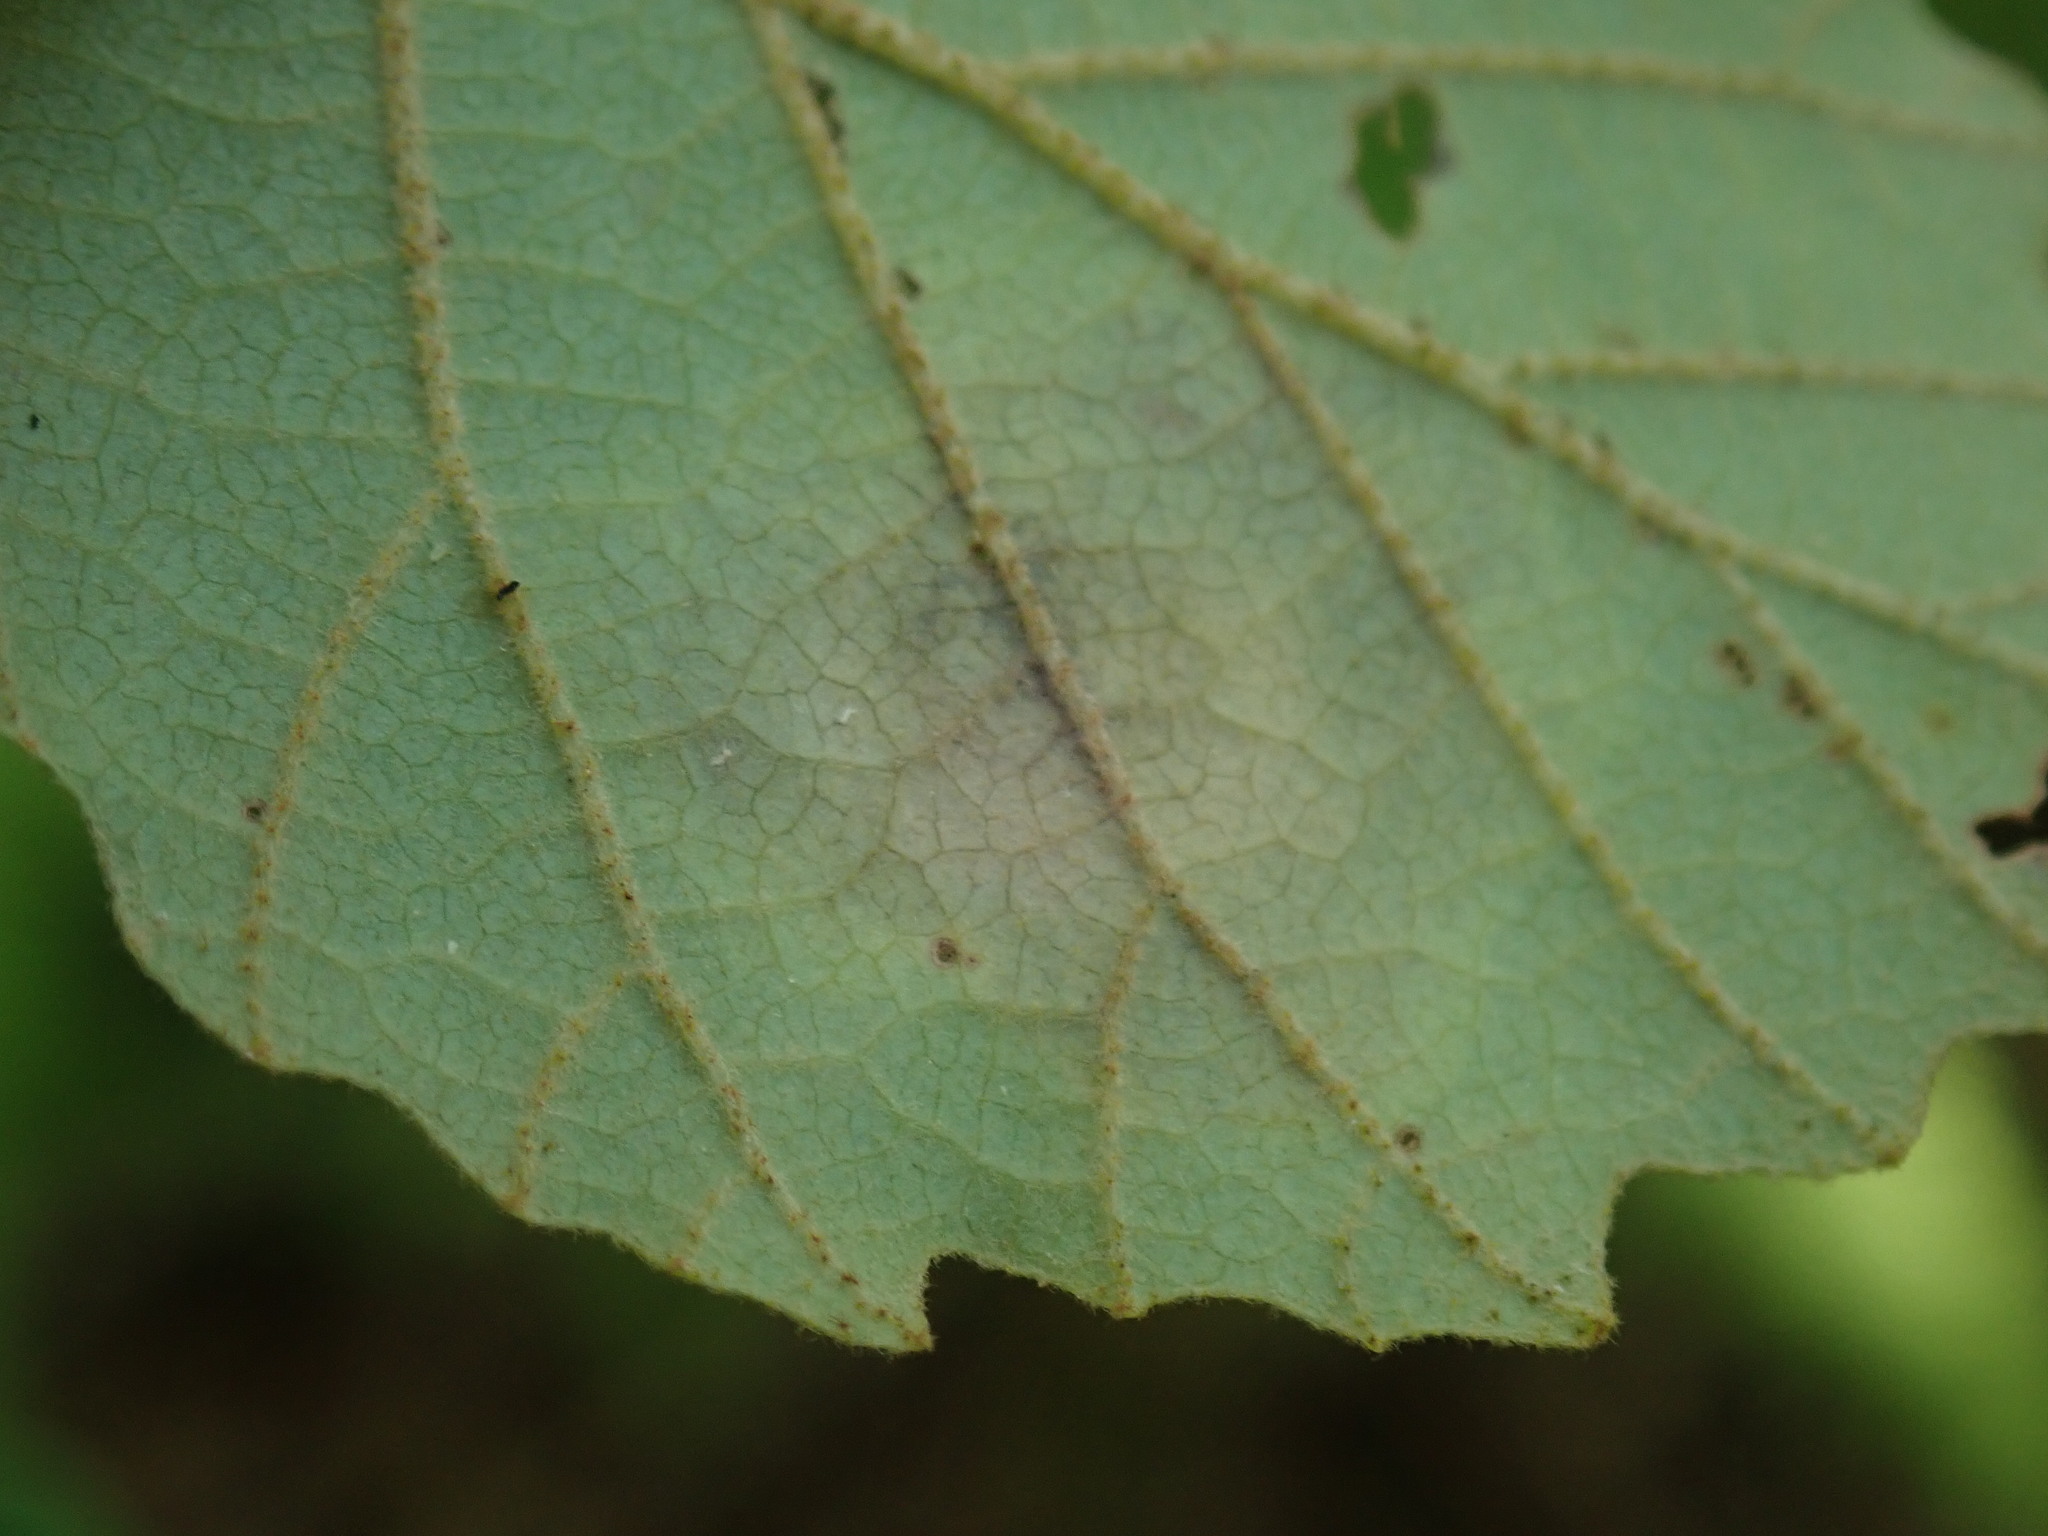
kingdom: Animalia
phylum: Arthropoda
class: Insecta
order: Lepidoptera
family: Gracillariidae
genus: Cameraria
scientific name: Cameraria hamameliella
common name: Witchhazel leafminer
